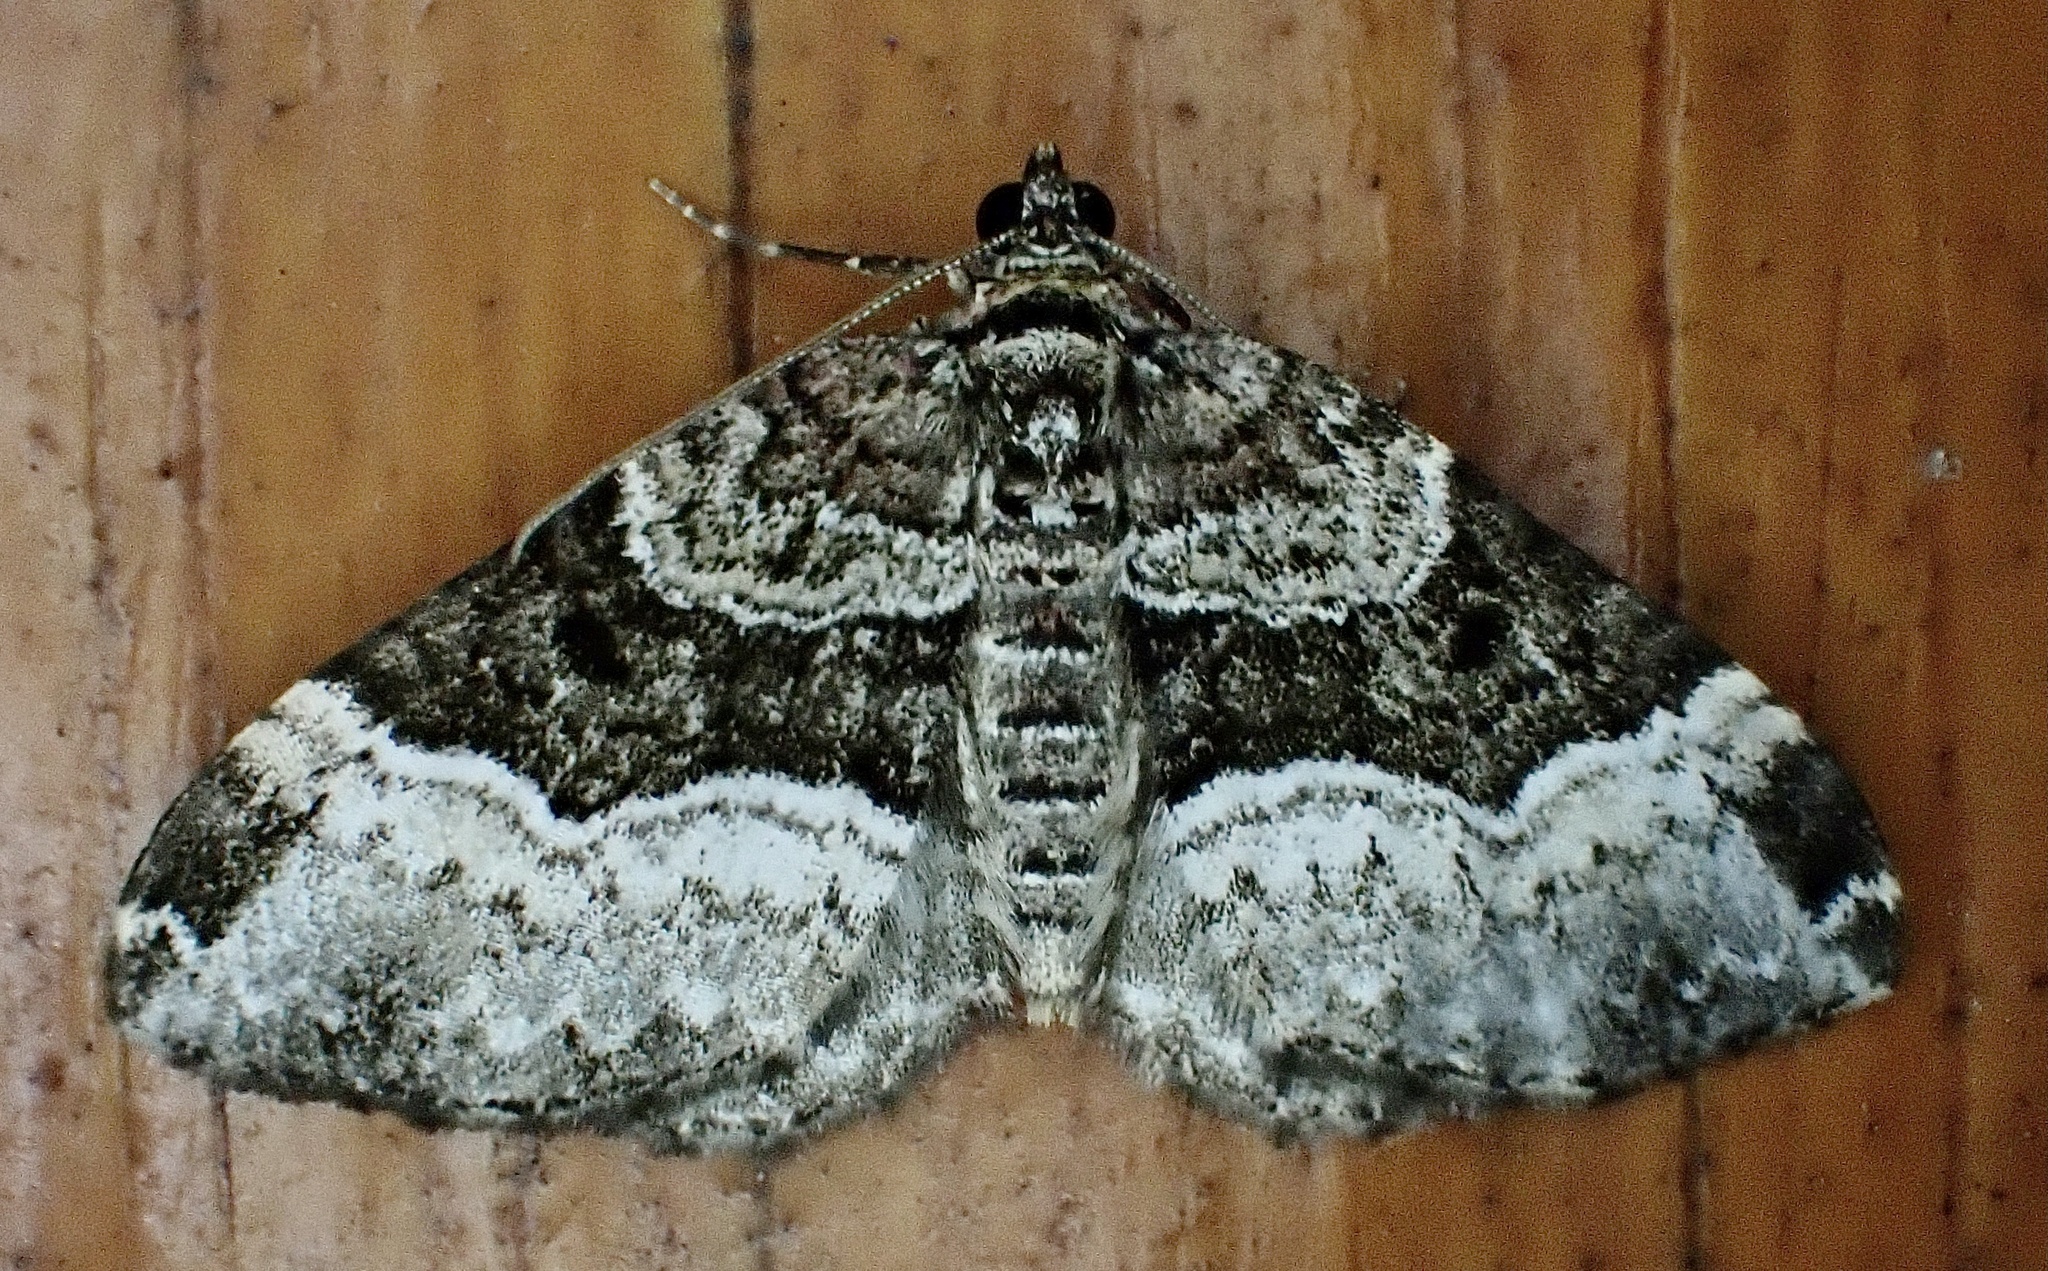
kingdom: Animalia
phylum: Arthropoda
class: Insecta
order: Lepidoptera
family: Geometridae
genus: Euphyia
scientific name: Euphyia intermediata
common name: Sharp-angled carpet
